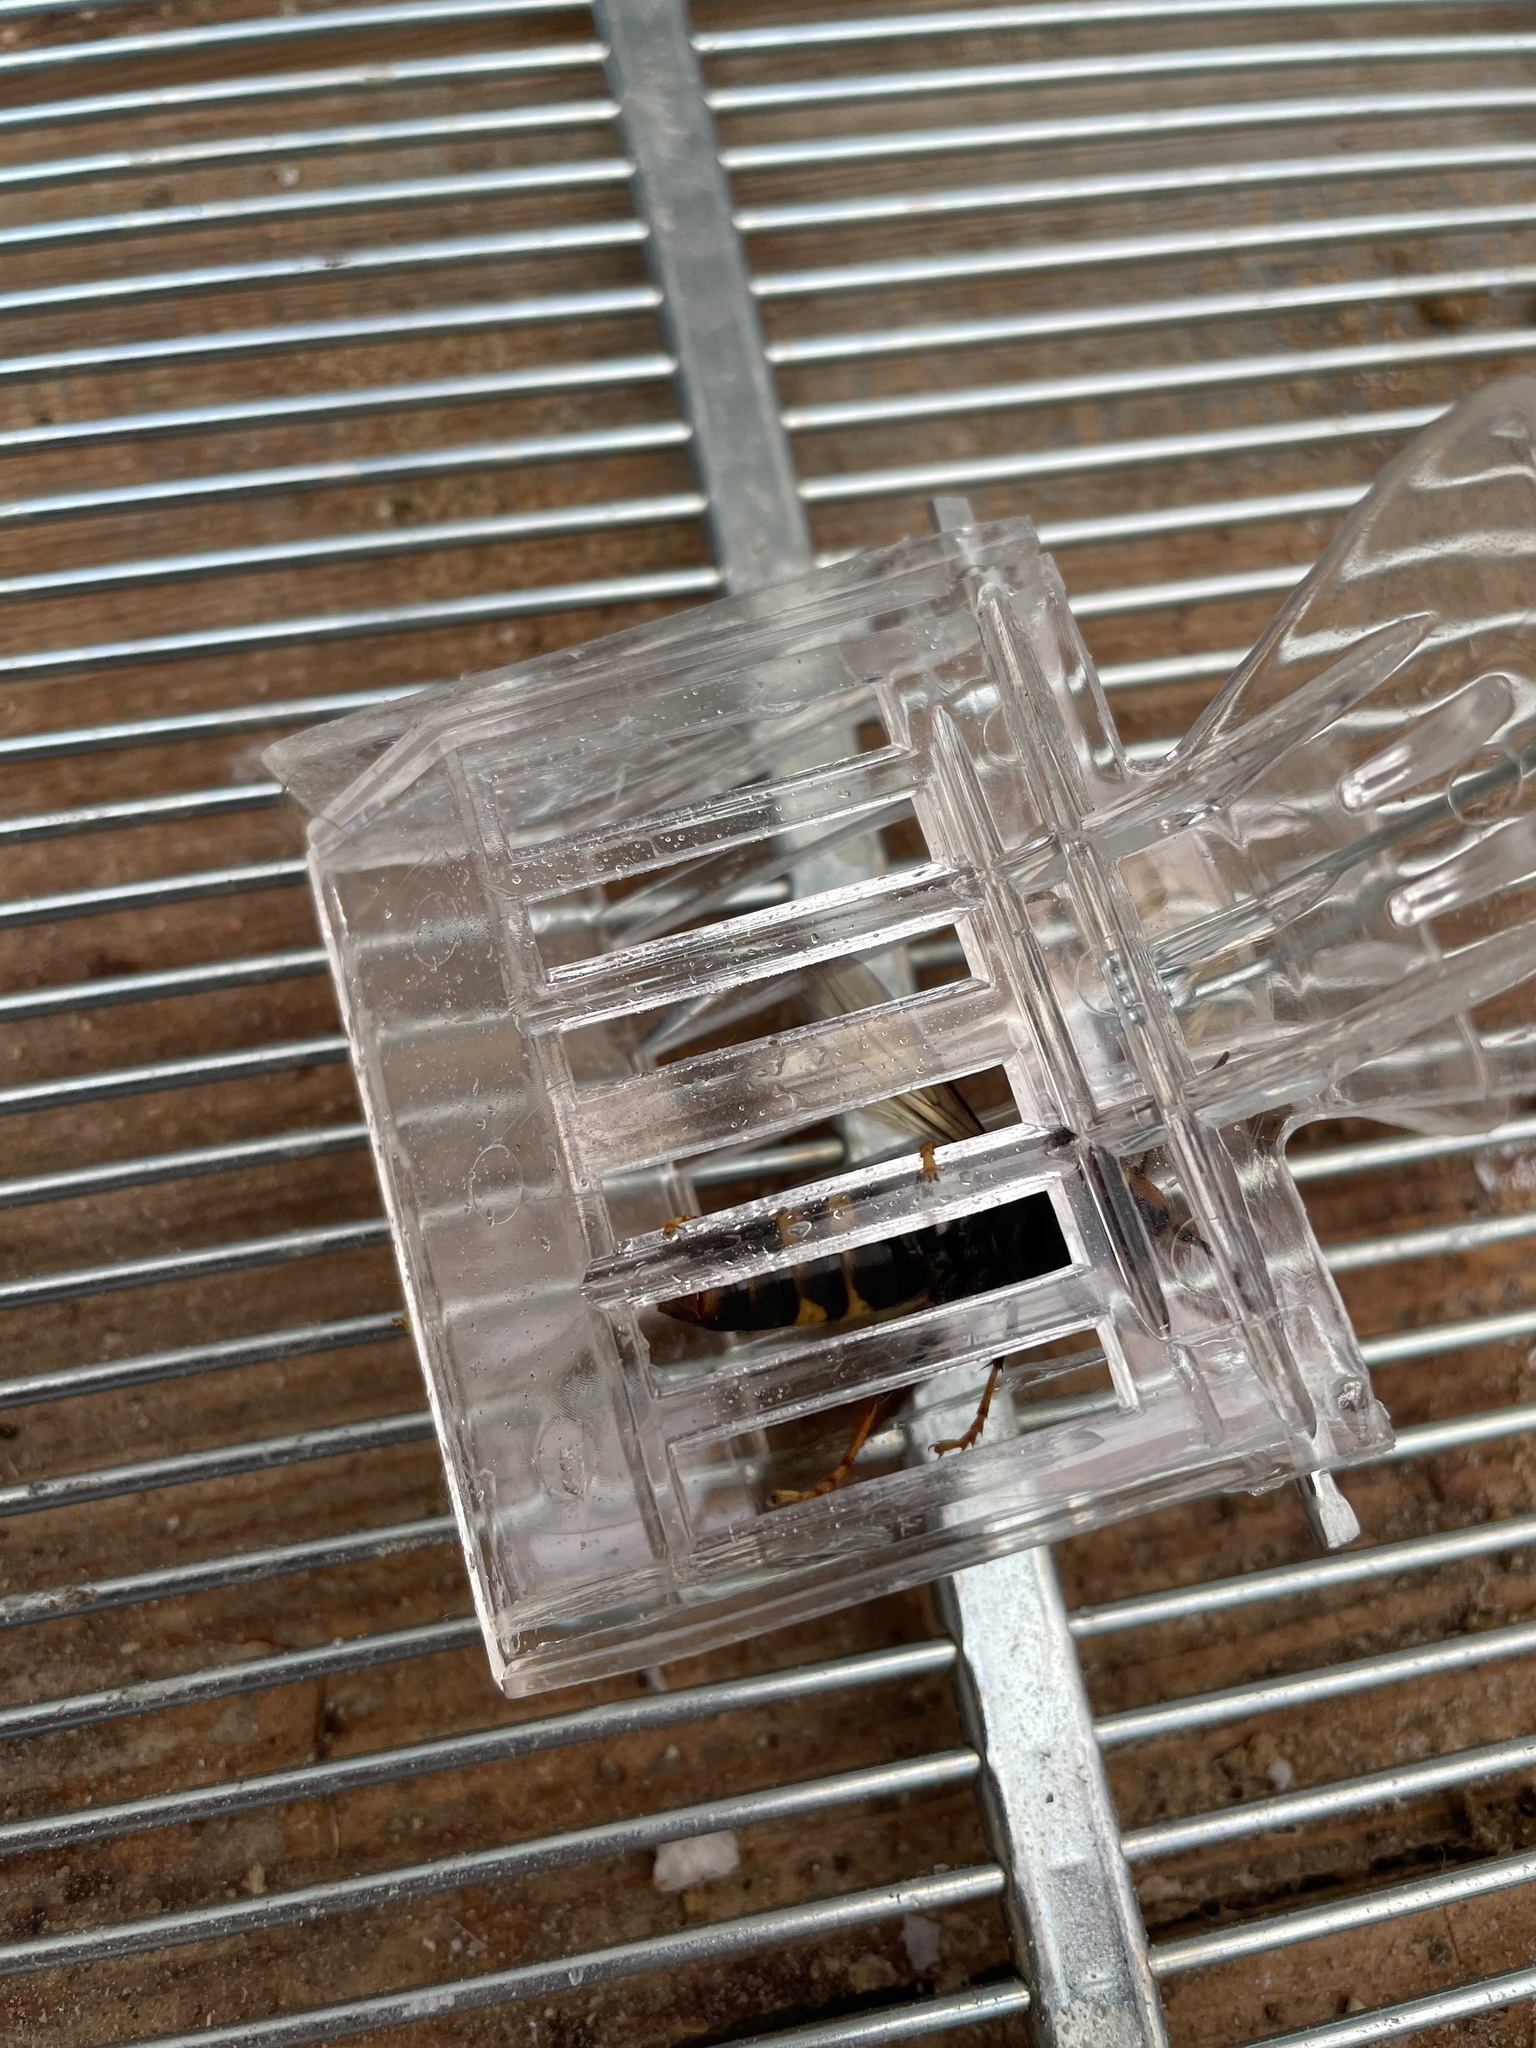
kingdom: Animalia
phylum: Arthropoda
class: Insecta
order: Hymenoptera
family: Vespidae
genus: Vespa
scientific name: Vespa velutina
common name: Asian hornet
